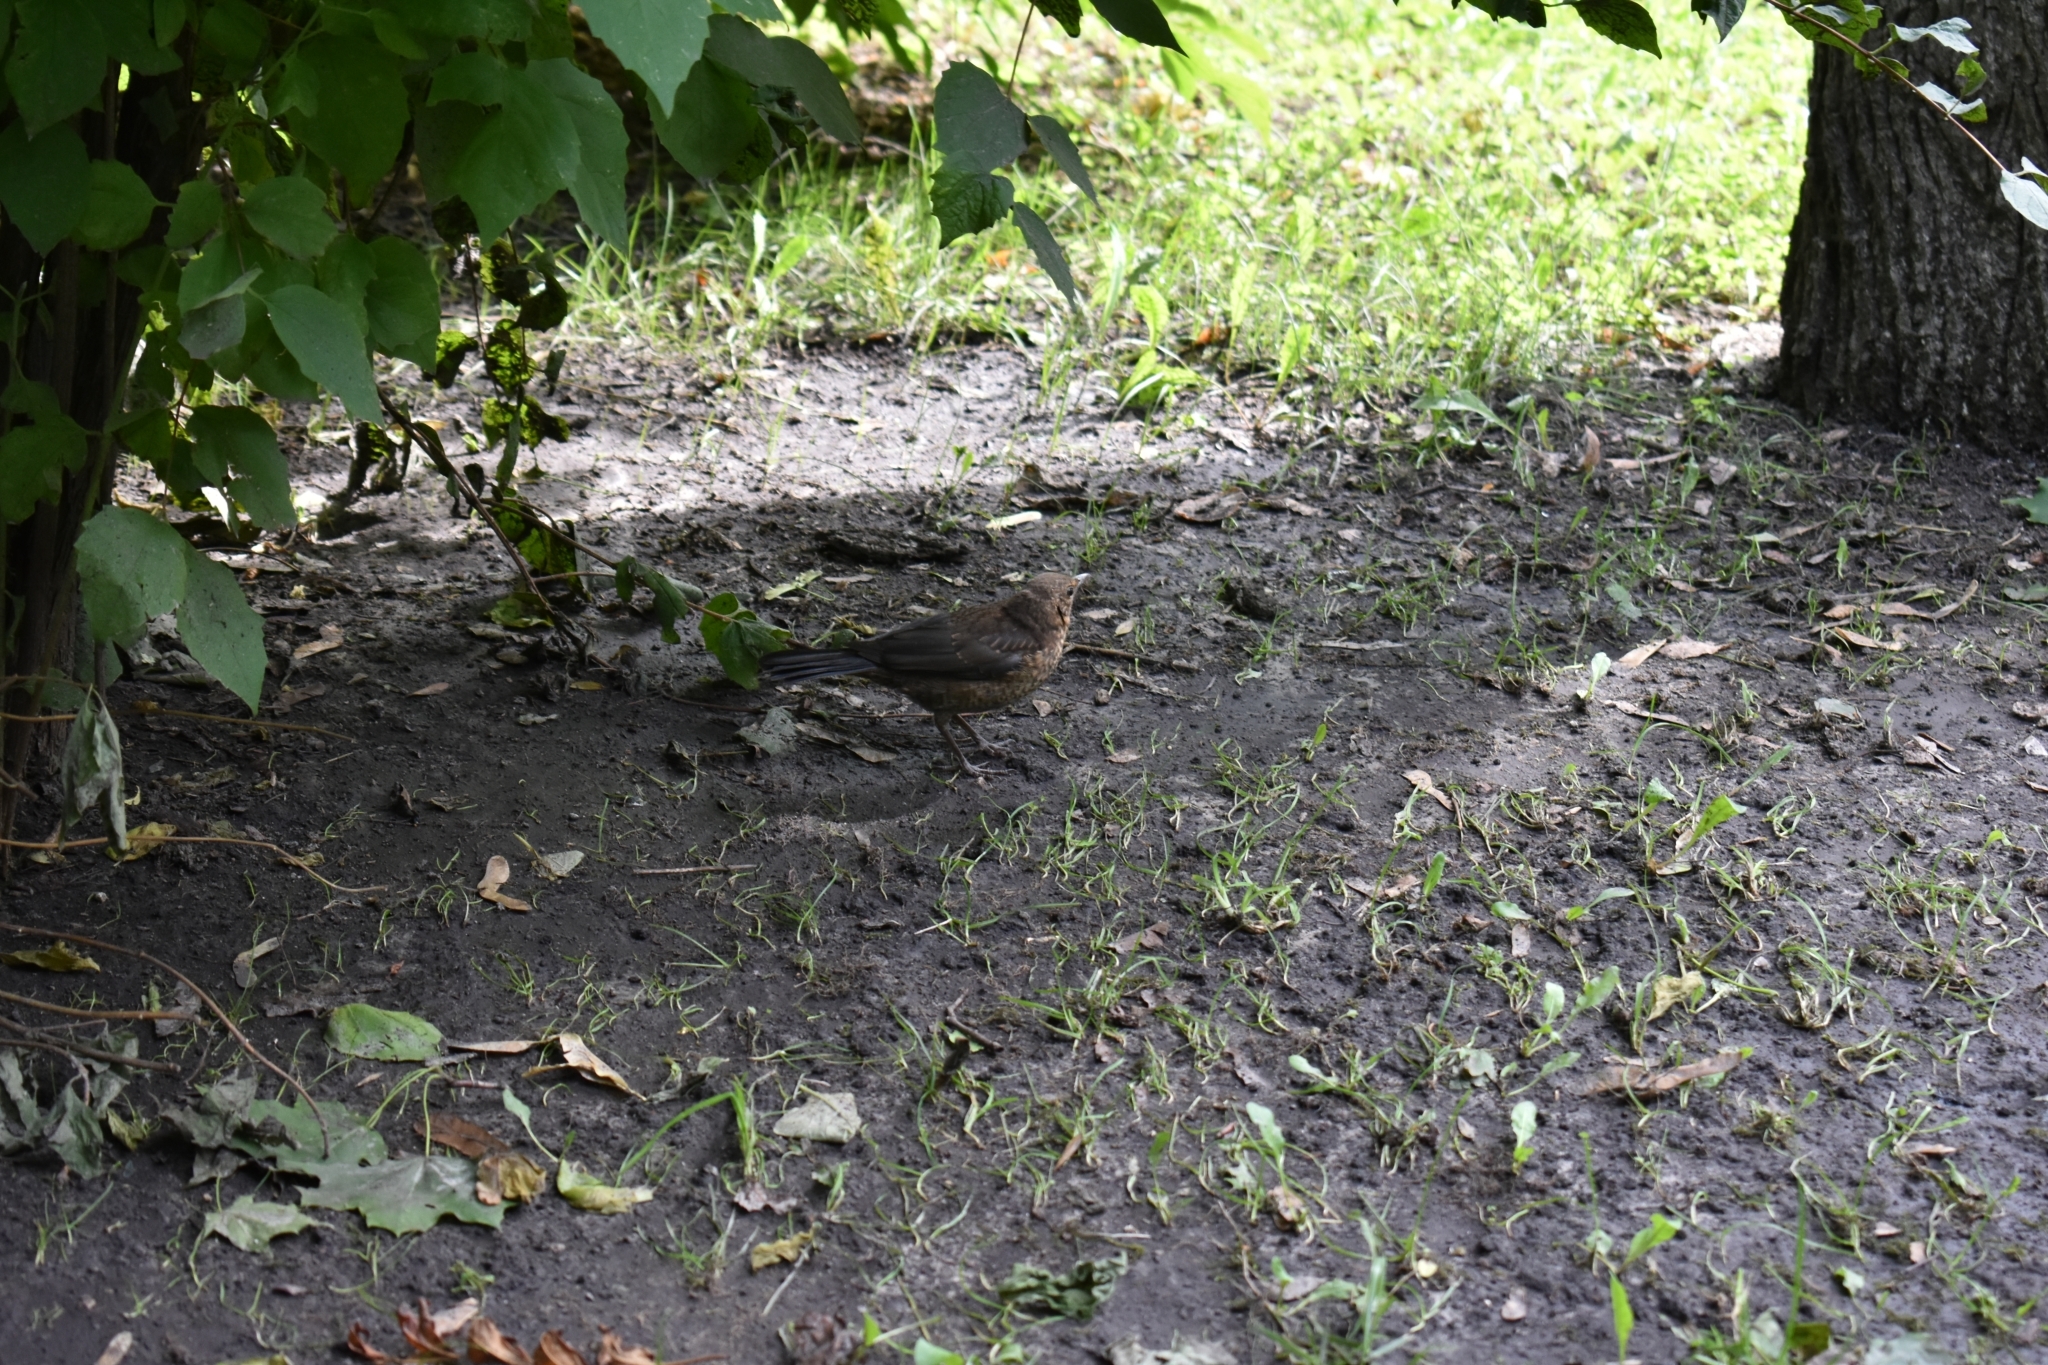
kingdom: Animalia
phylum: Chordata
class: Aves
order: Passeriformes
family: Turdidae
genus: Turdus
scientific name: Turdus merula
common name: Common blackbird
